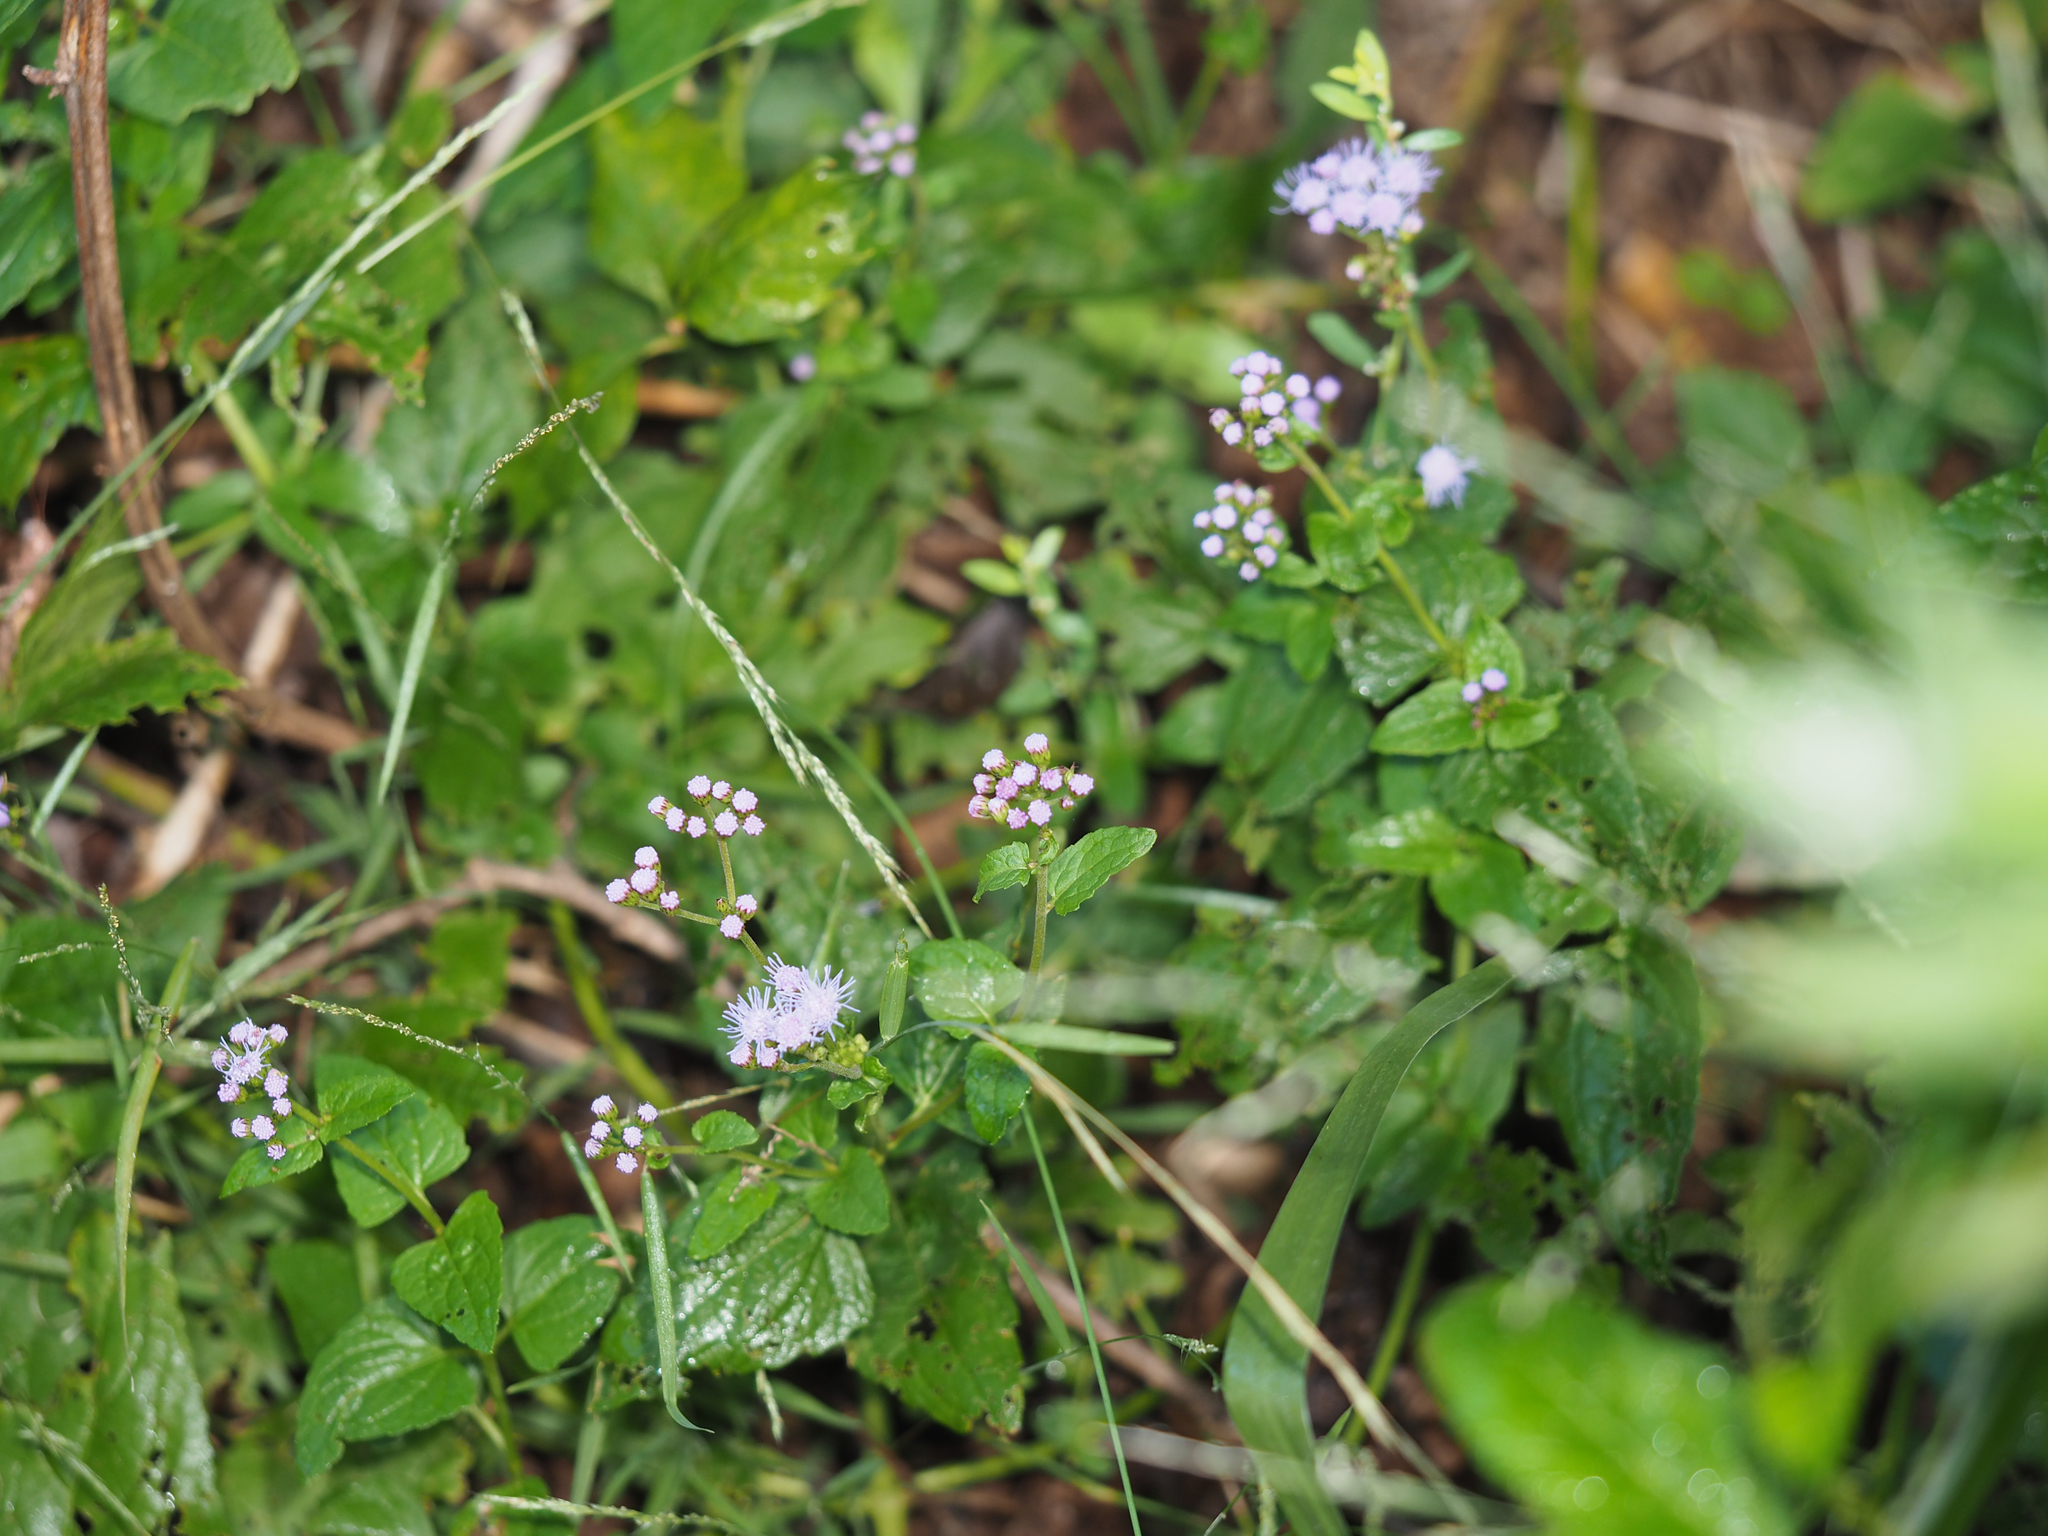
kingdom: Plantae
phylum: Tracheophyta
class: Magnoliopsida
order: Asterales
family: Asteraceae
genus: Conoclinium
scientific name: Conoclinium coelestinum
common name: Blue mistflower
